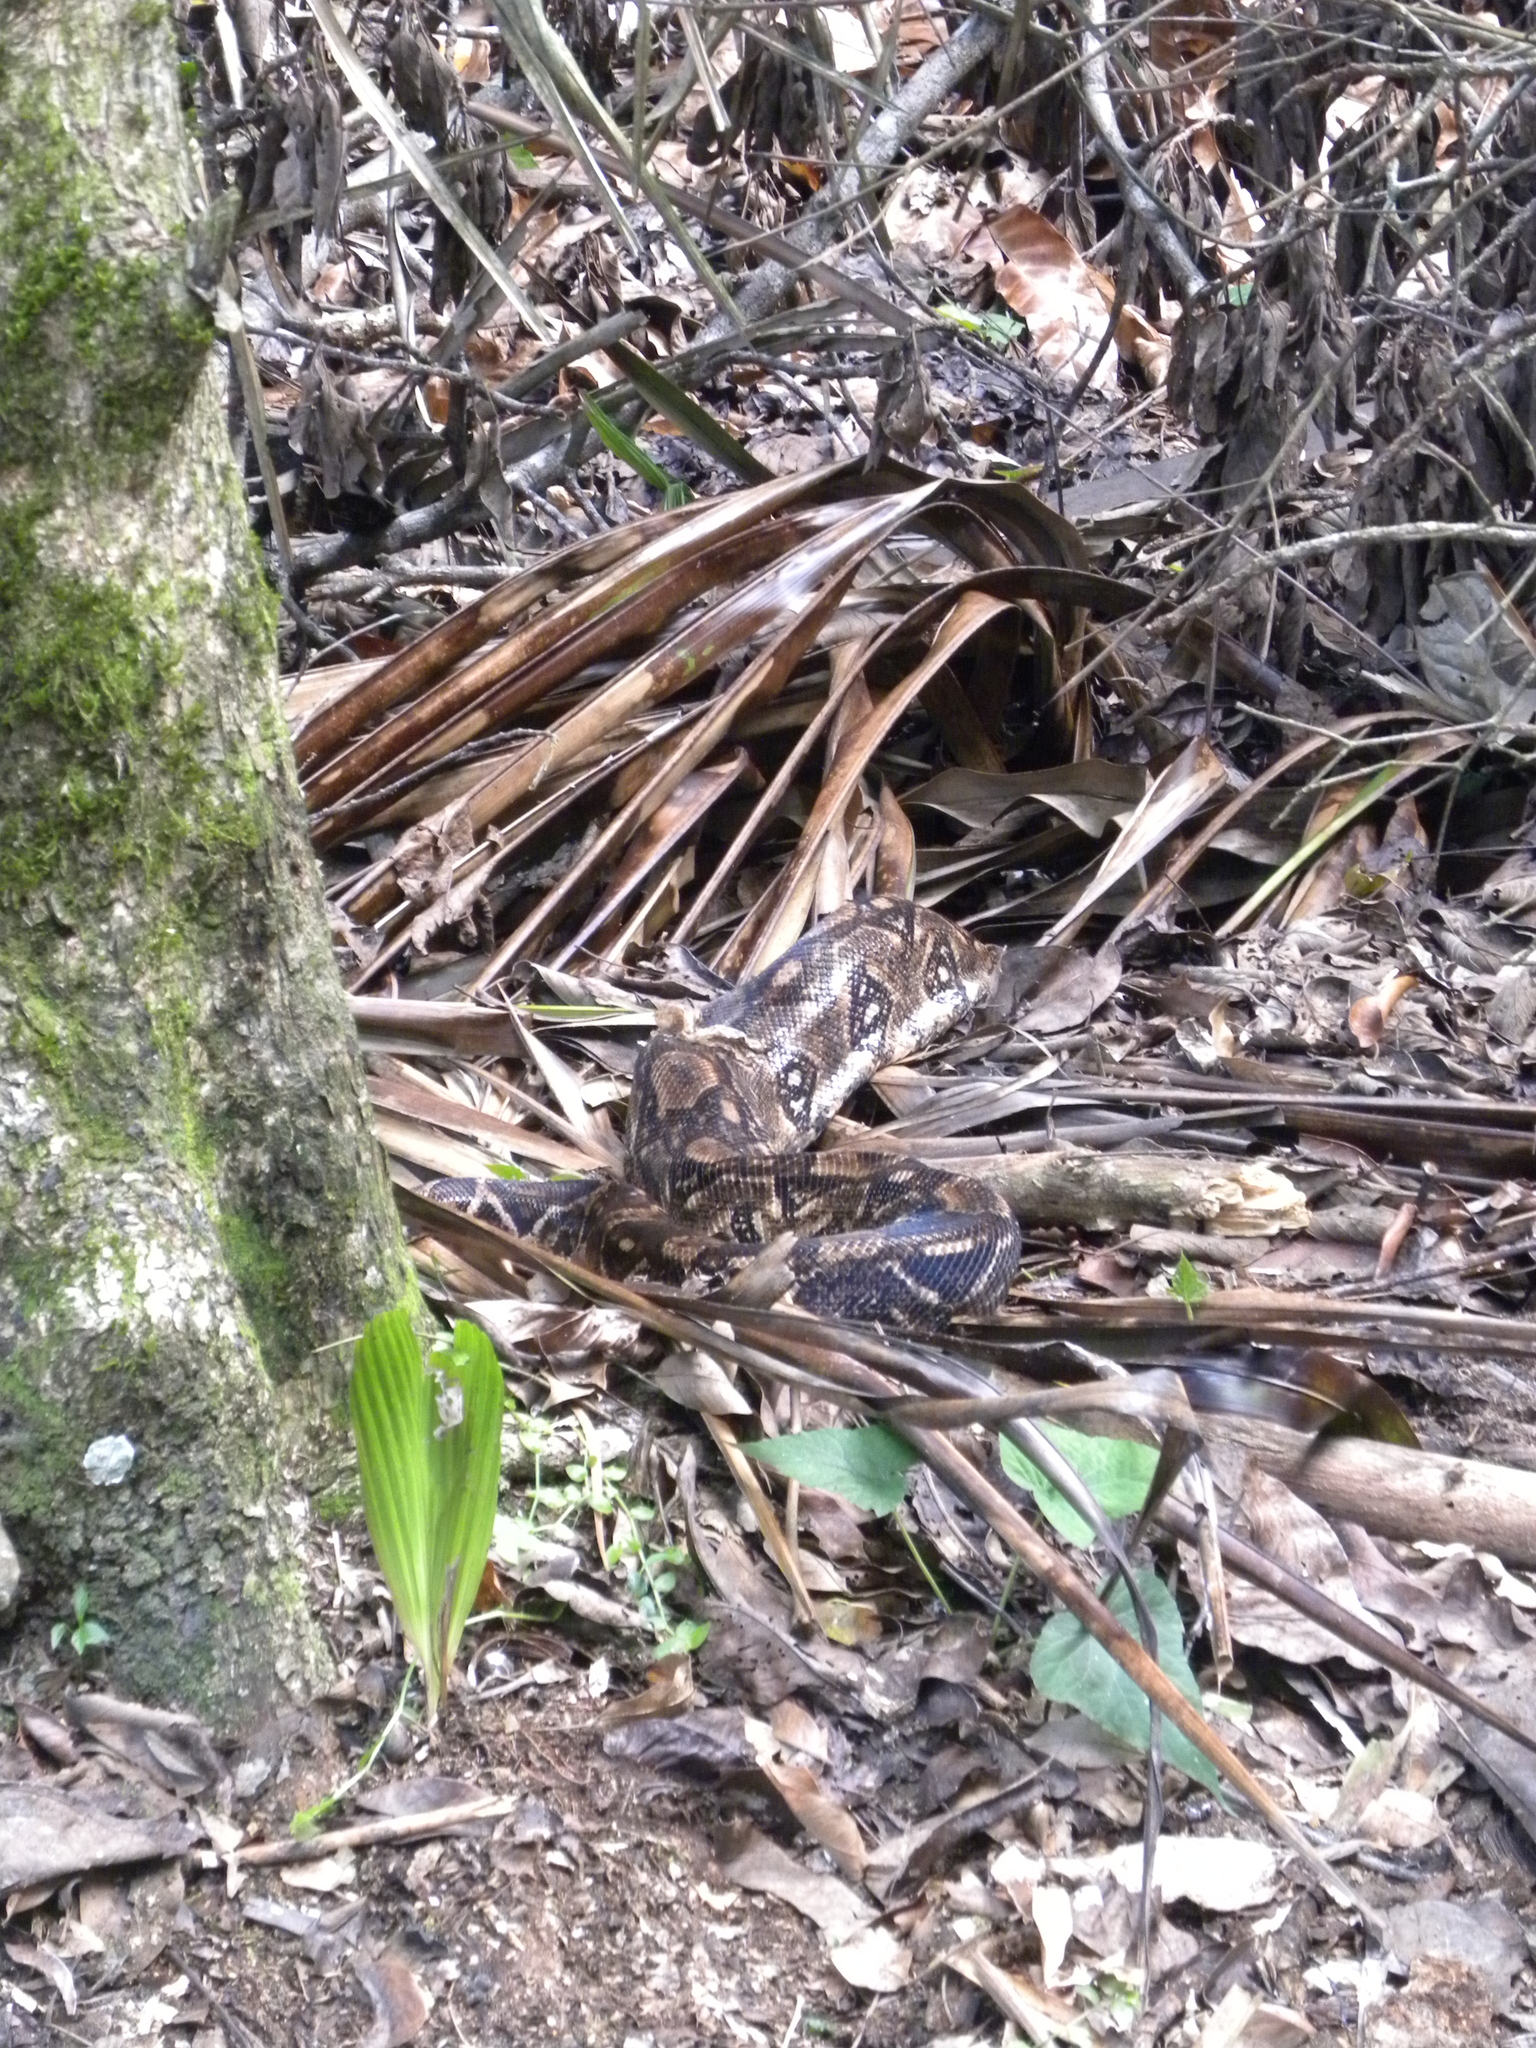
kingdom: Animalia
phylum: Chordata
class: Squamata
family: Boidae
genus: Boa
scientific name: Boa imperator
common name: Central american boa
